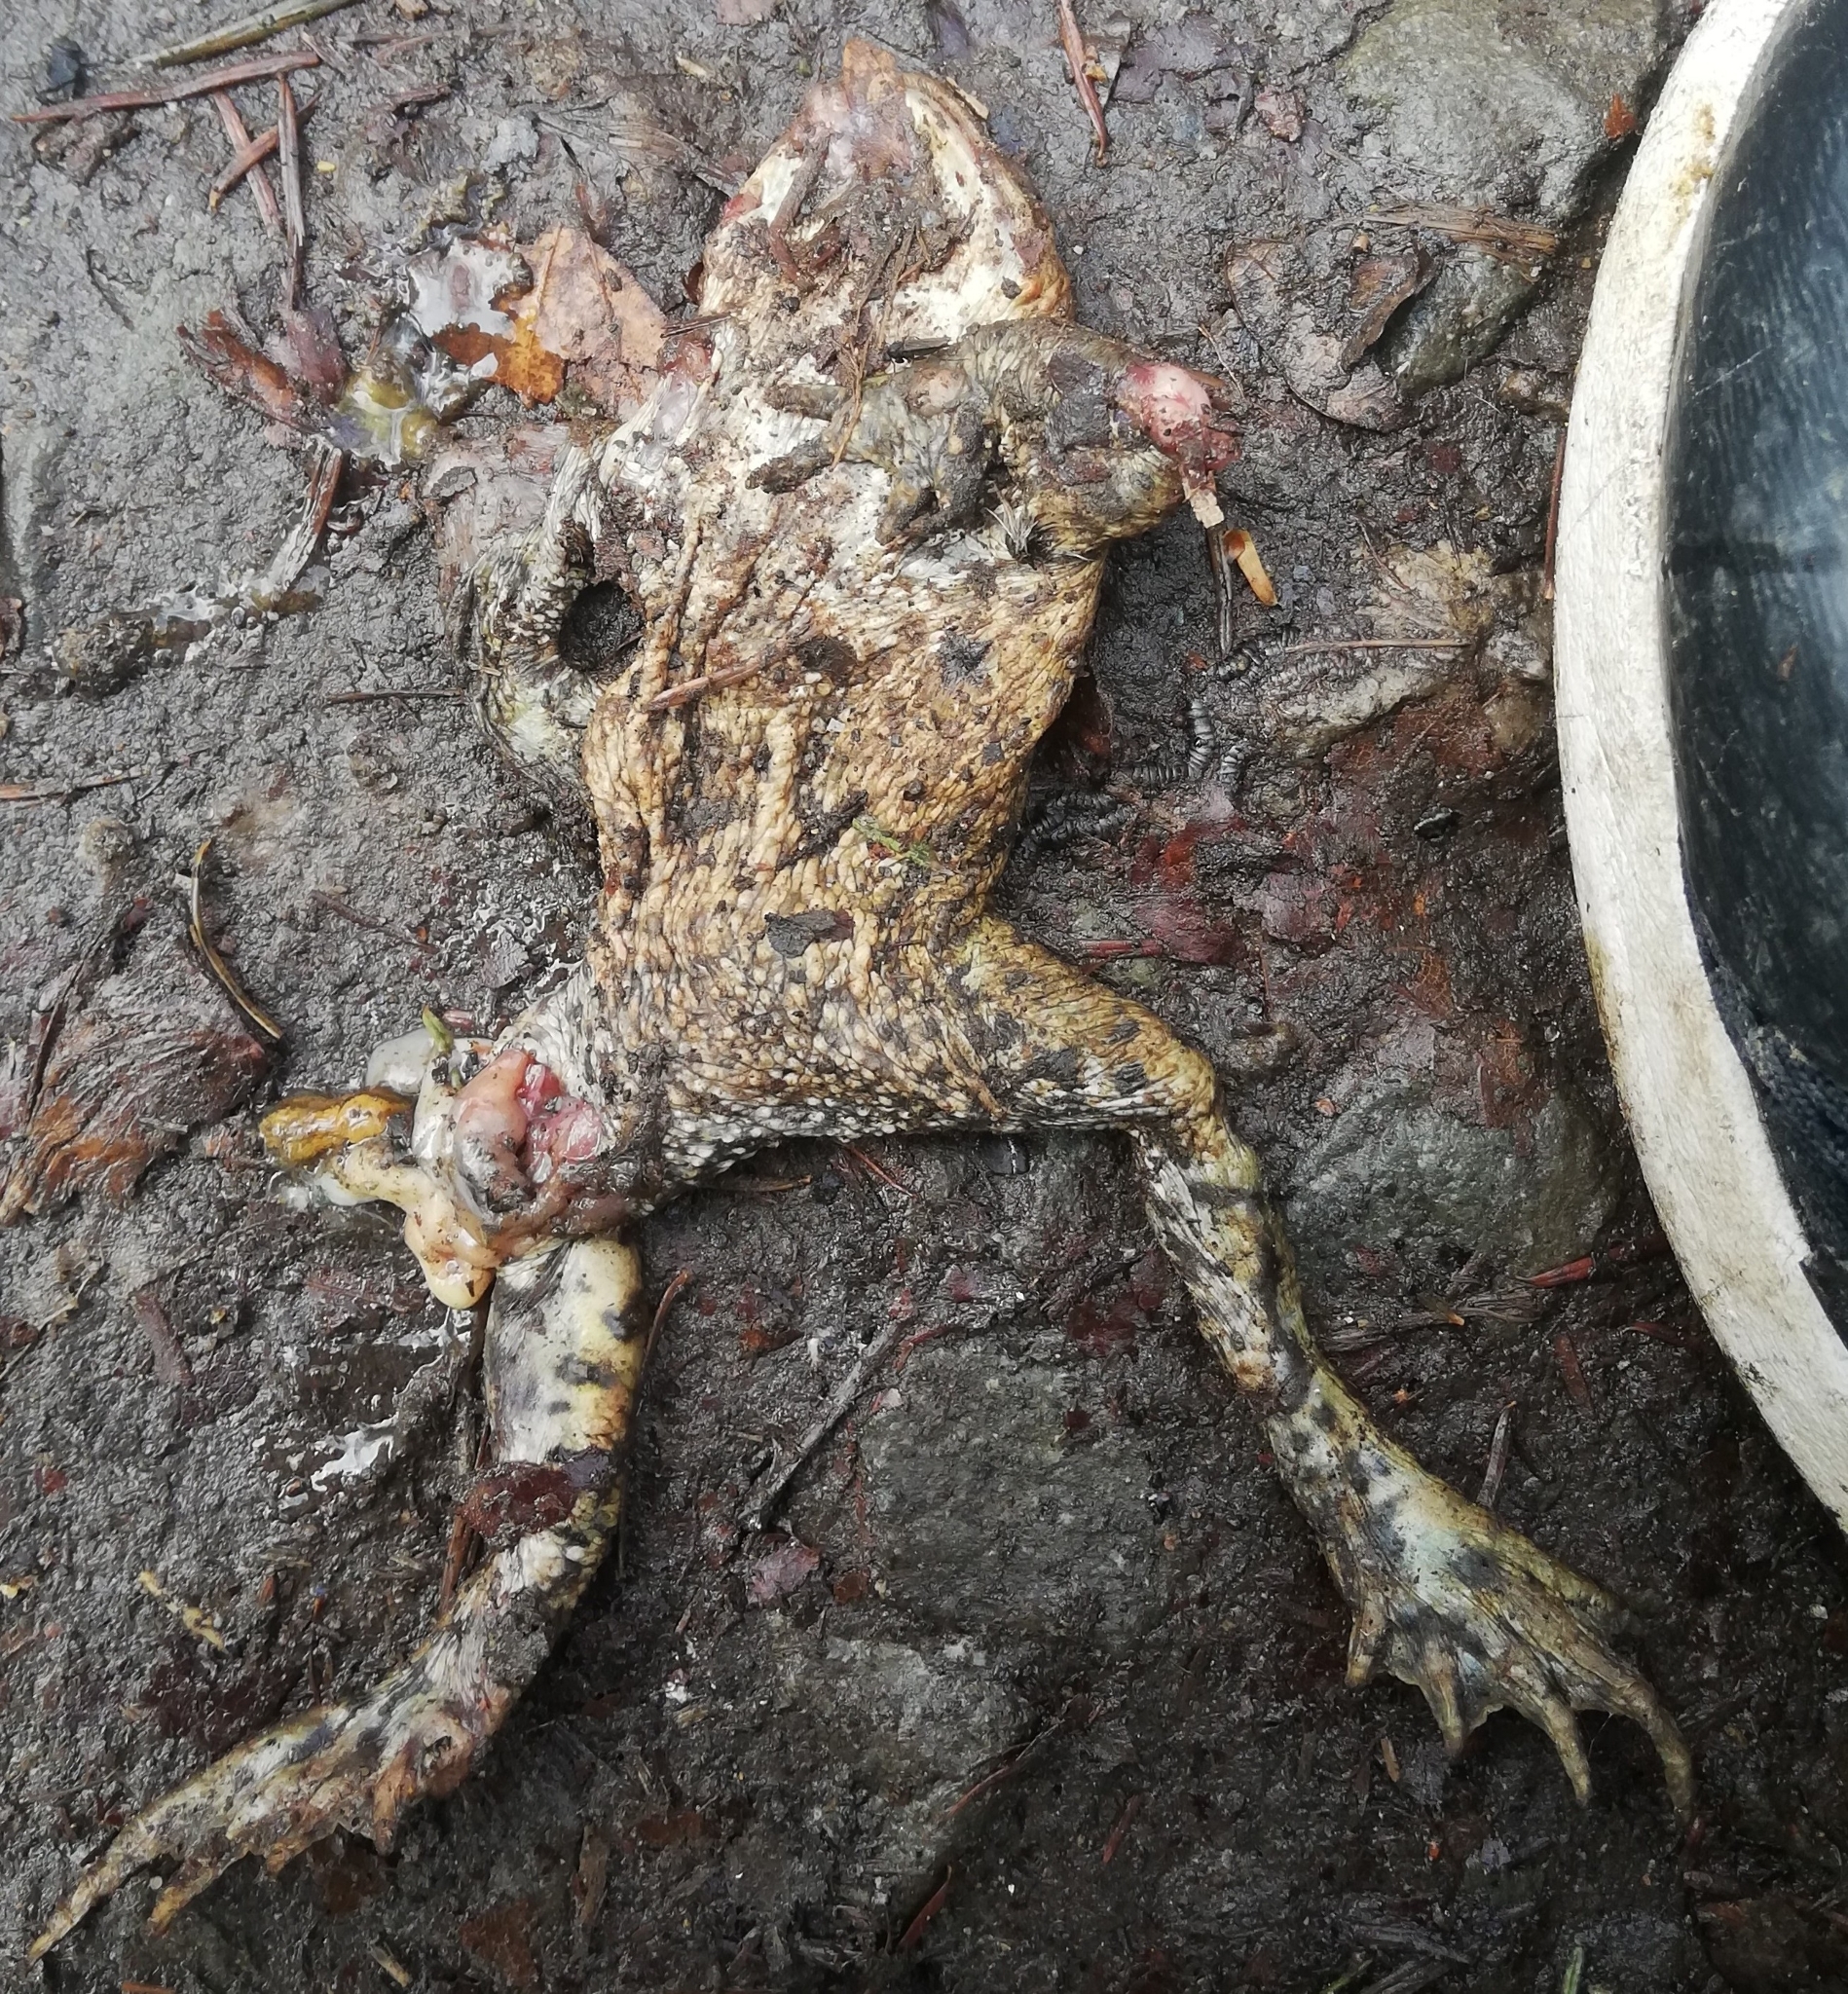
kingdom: Animalia
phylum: Chordata
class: Amphibia
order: Anura
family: Bufonidae
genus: Bufo
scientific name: Bufo bufo
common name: Common toad
